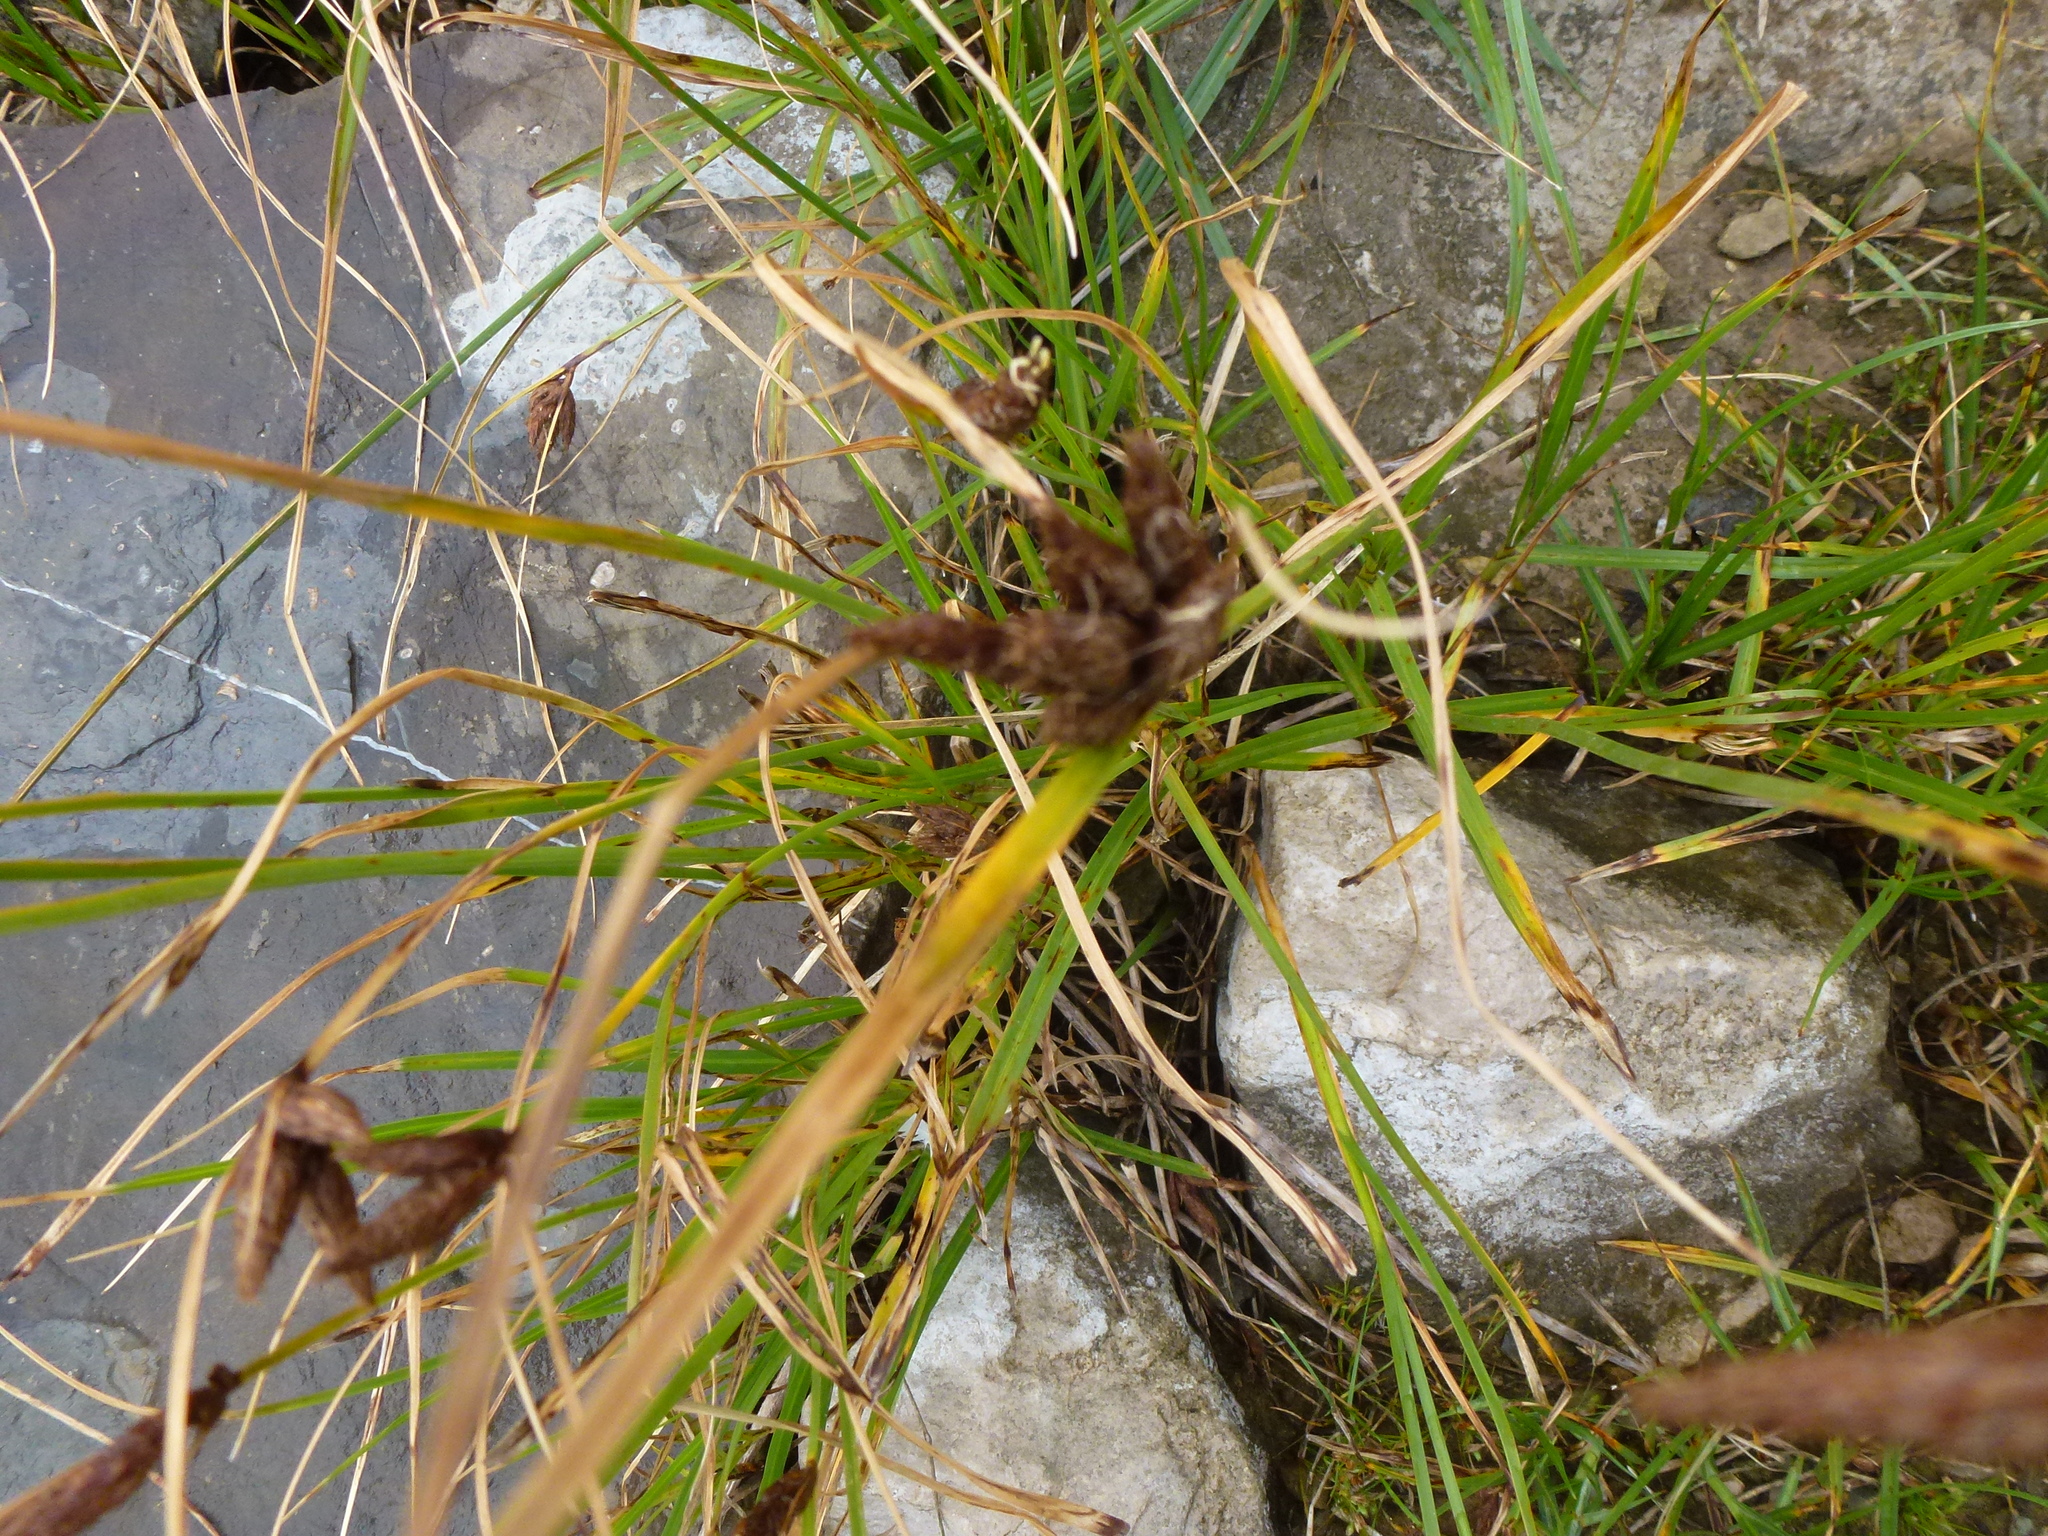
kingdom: Plantae
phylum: Tracheophyta
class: Liliopsida
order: Poales
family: Cyperaceae
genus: Bolboschoenus
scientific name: Bolboschoenus maritimus
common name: Sea club-rush
